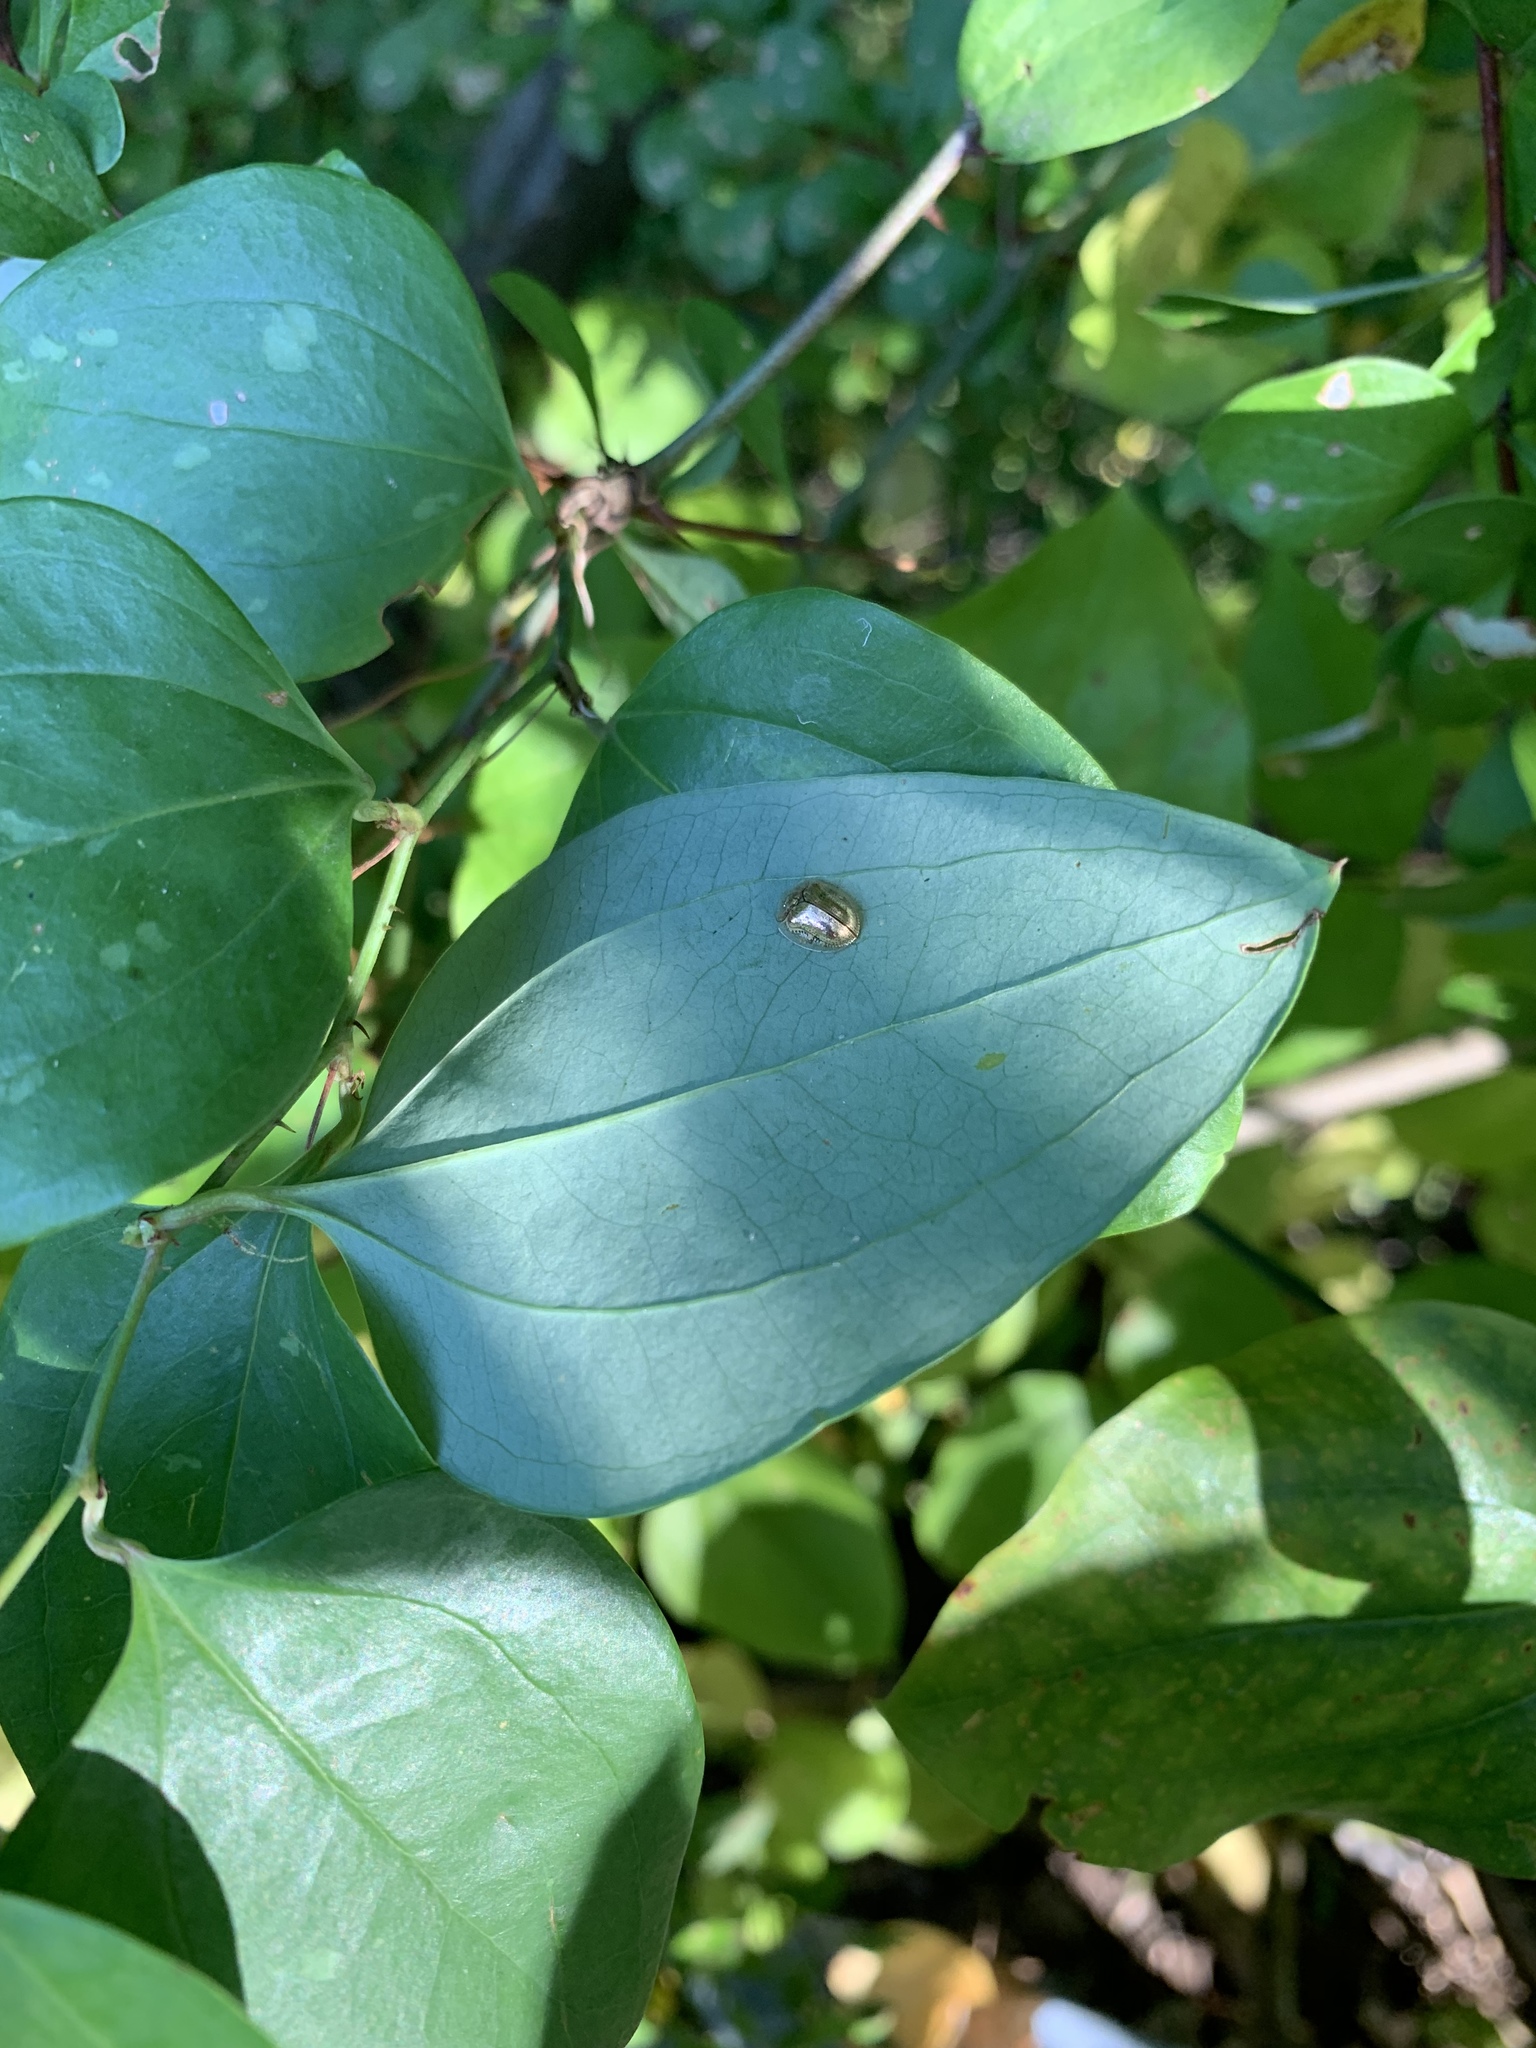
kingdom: Animalia
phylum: Arthropoda
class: Insecta
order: Coleoptera
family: Chrysomelidae
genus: Charidotella
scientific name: Charidotella sexpunctata
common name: Golden tortoise beetle
